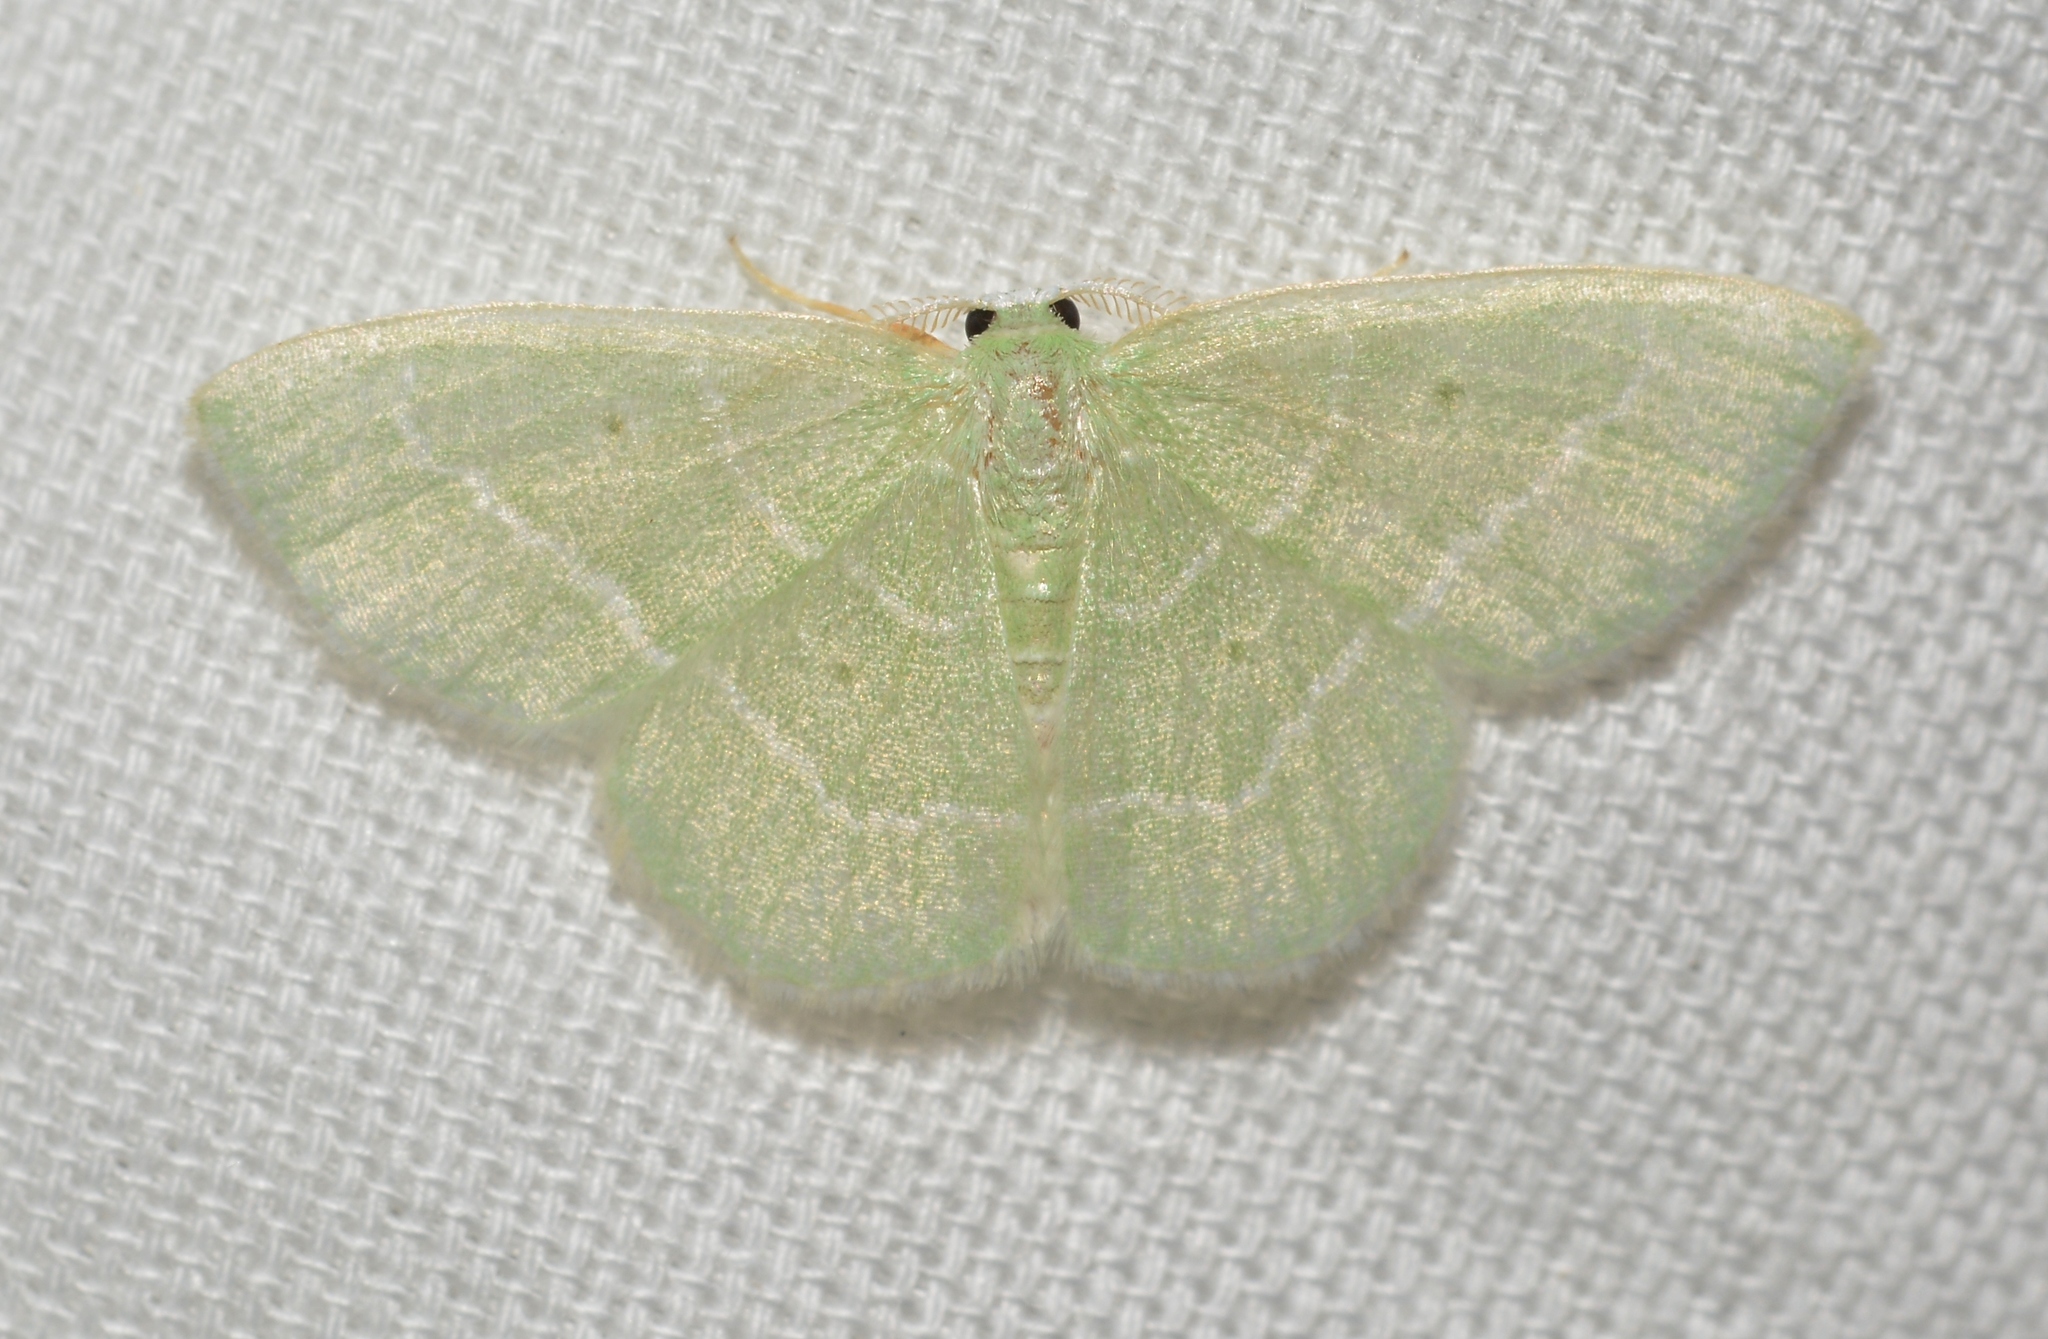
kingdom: Animalia
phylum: Arthropoda
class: Insecta
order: Lepidoptera
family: Geometridae
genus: Nemoria
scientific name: Nemoria elfa
